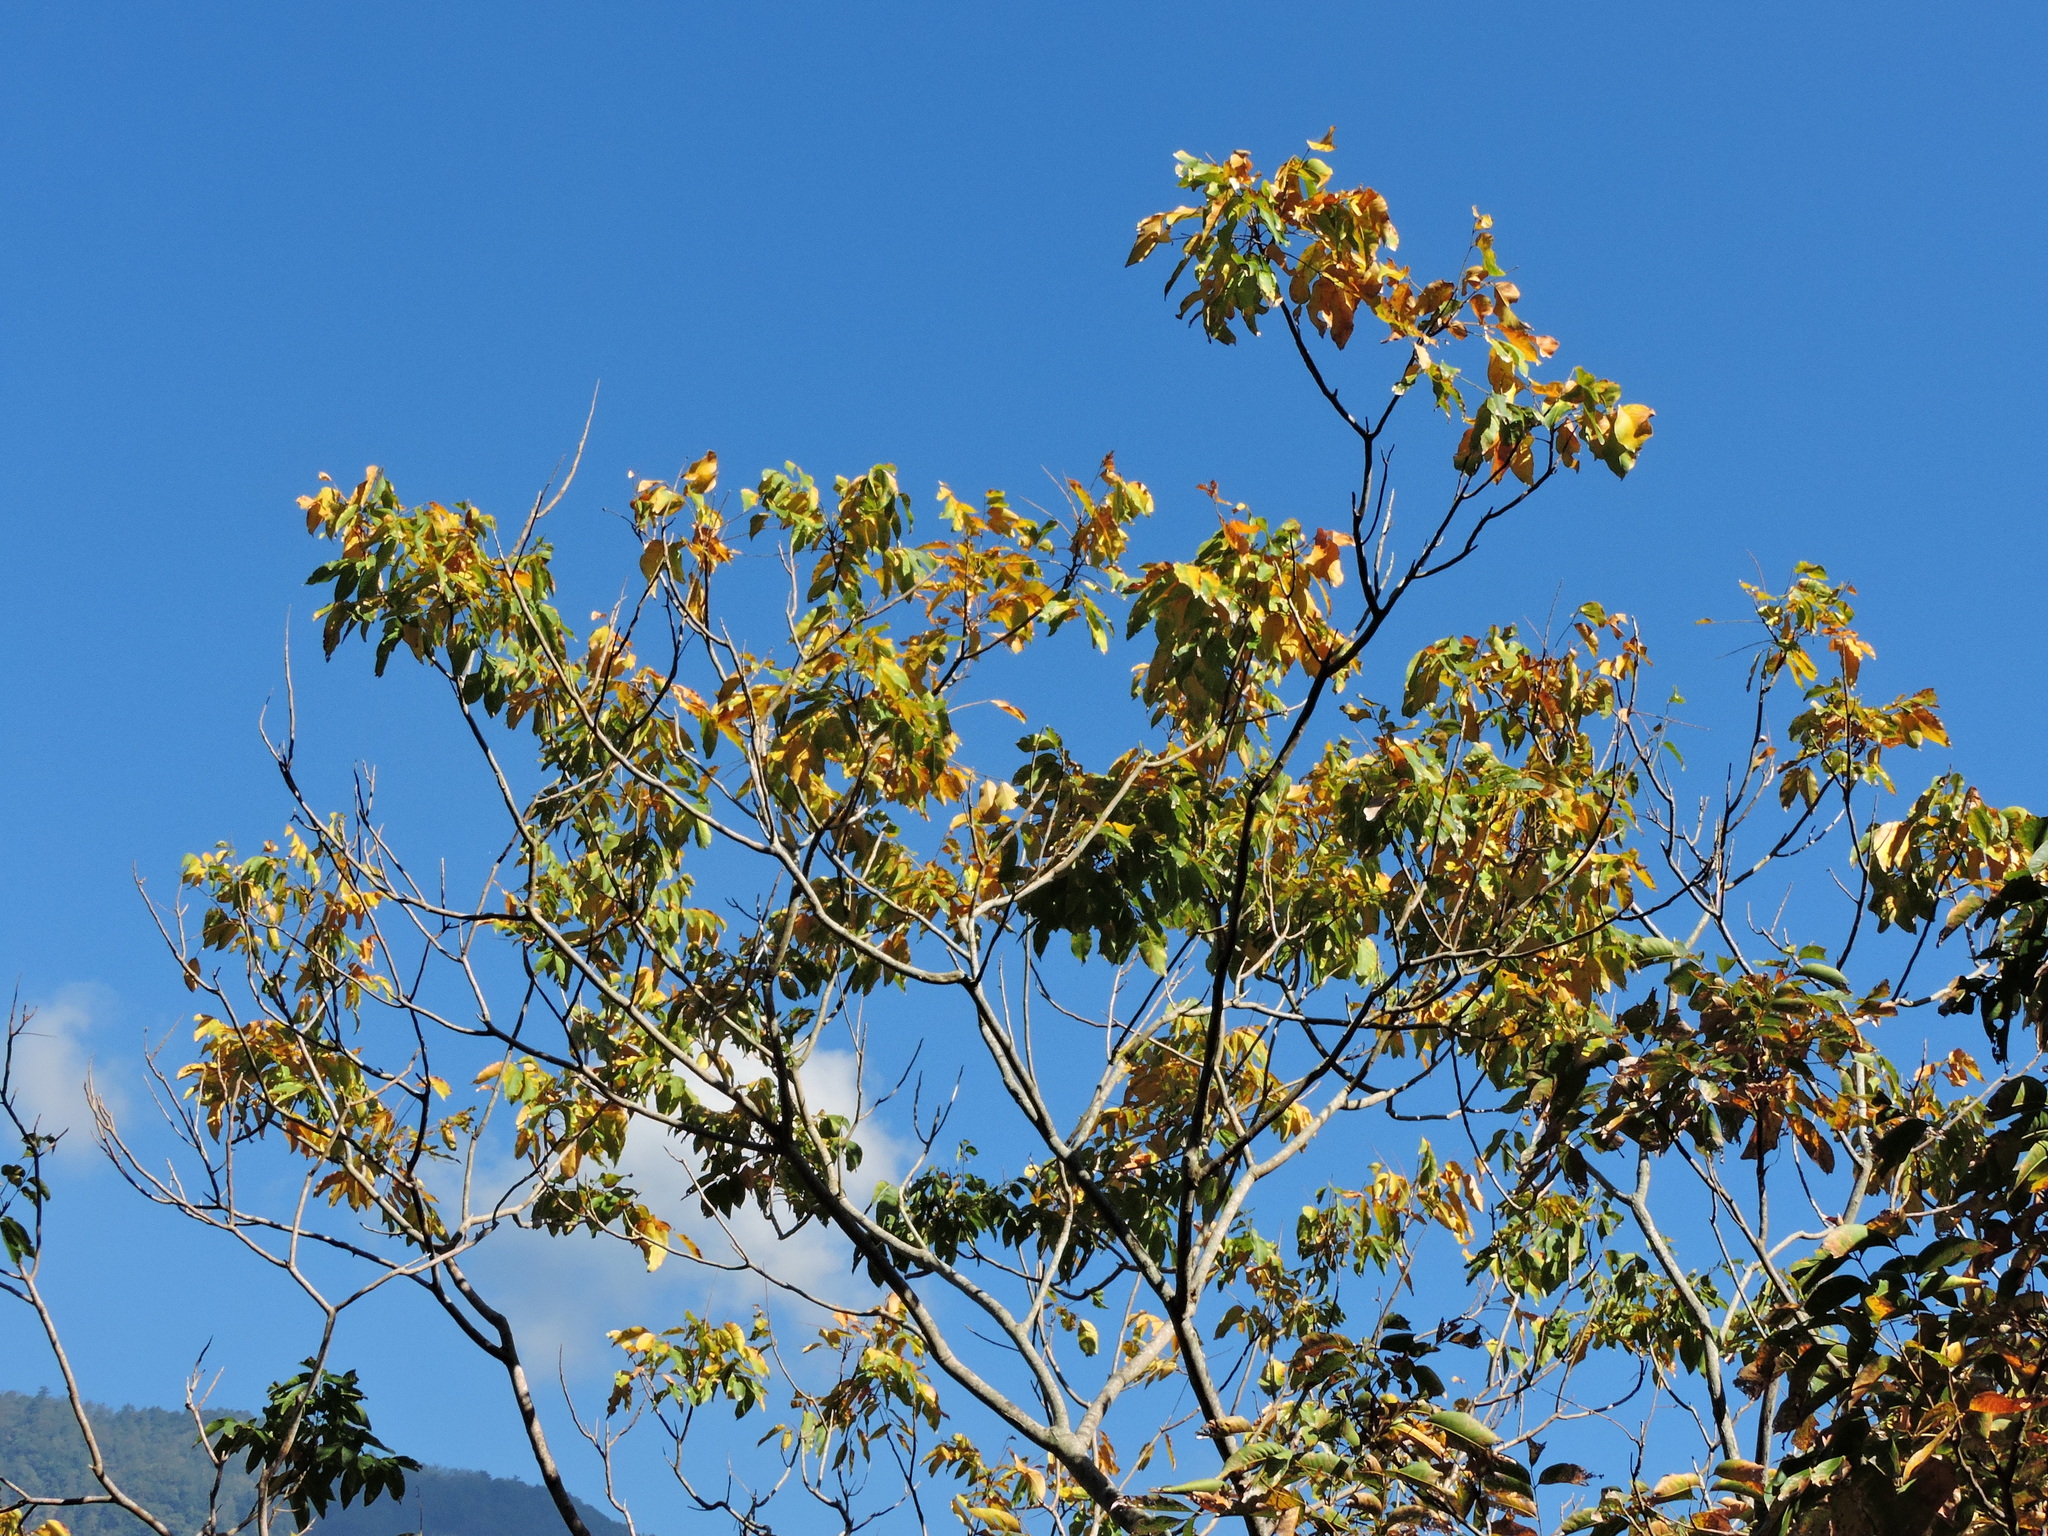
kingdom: Plantae
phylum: Tracheophyta
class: Magnoliopsida
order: Sapindales
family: Sapindaceae
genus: Sapindus
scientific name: Sapindus mukorossi
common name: Chinese soapberry
